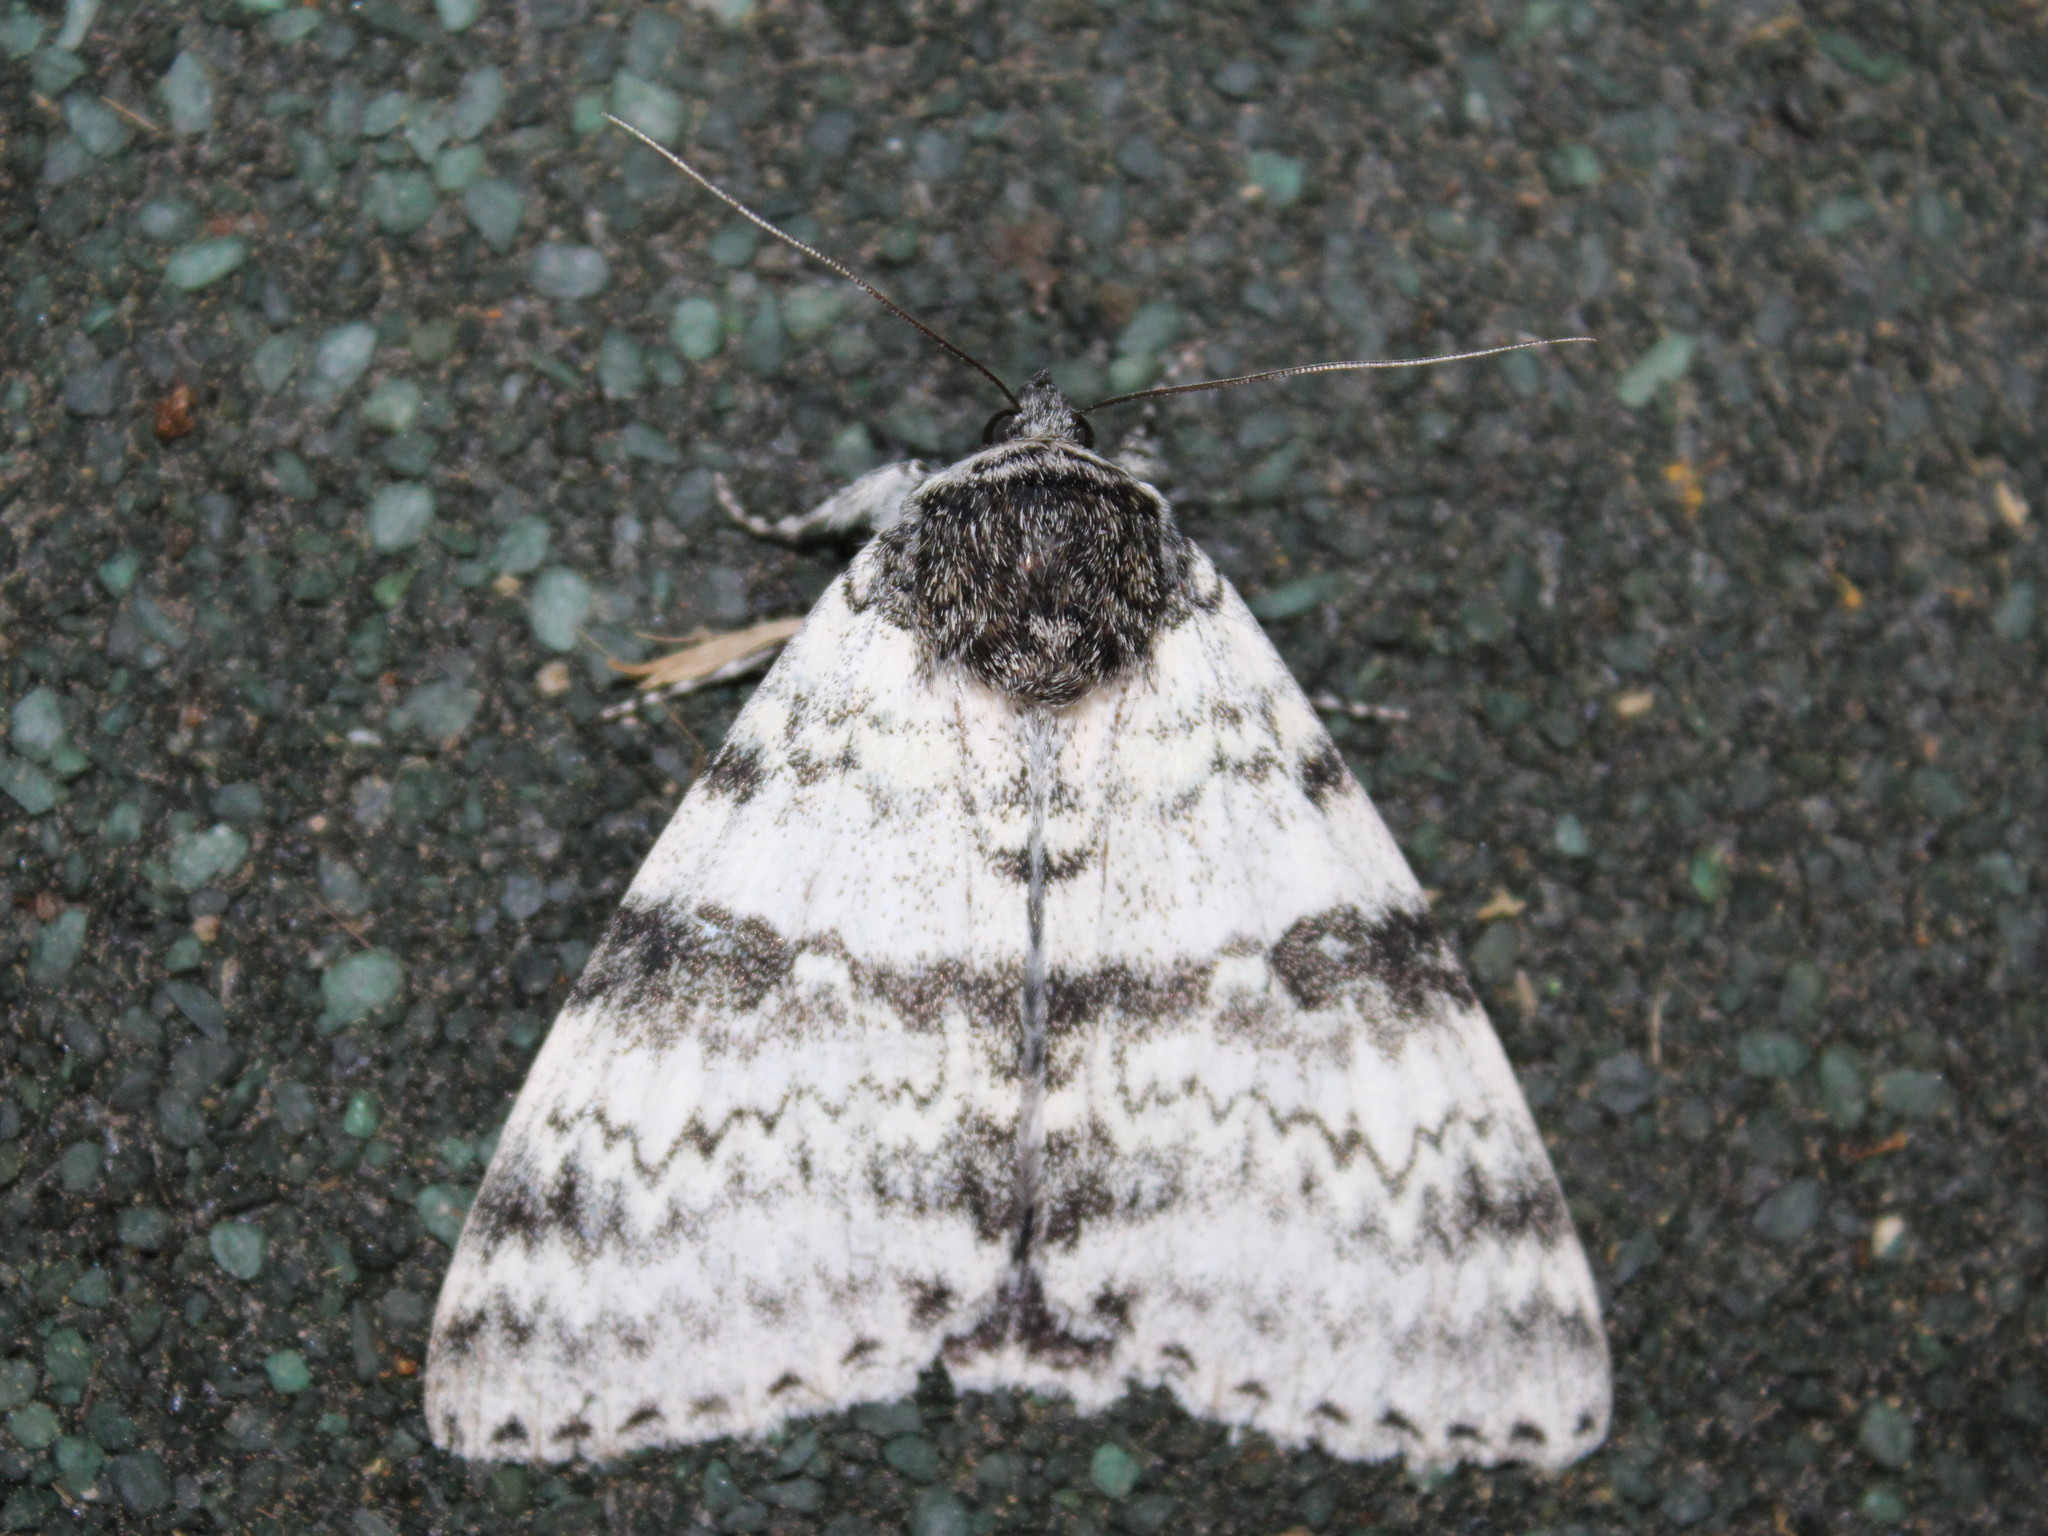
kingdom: Animalia
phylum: Arthropoda
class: Insecta
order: Lepidoptera
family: Erebidae
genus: Catocala
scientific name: Catocala relicta
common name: White underwing
